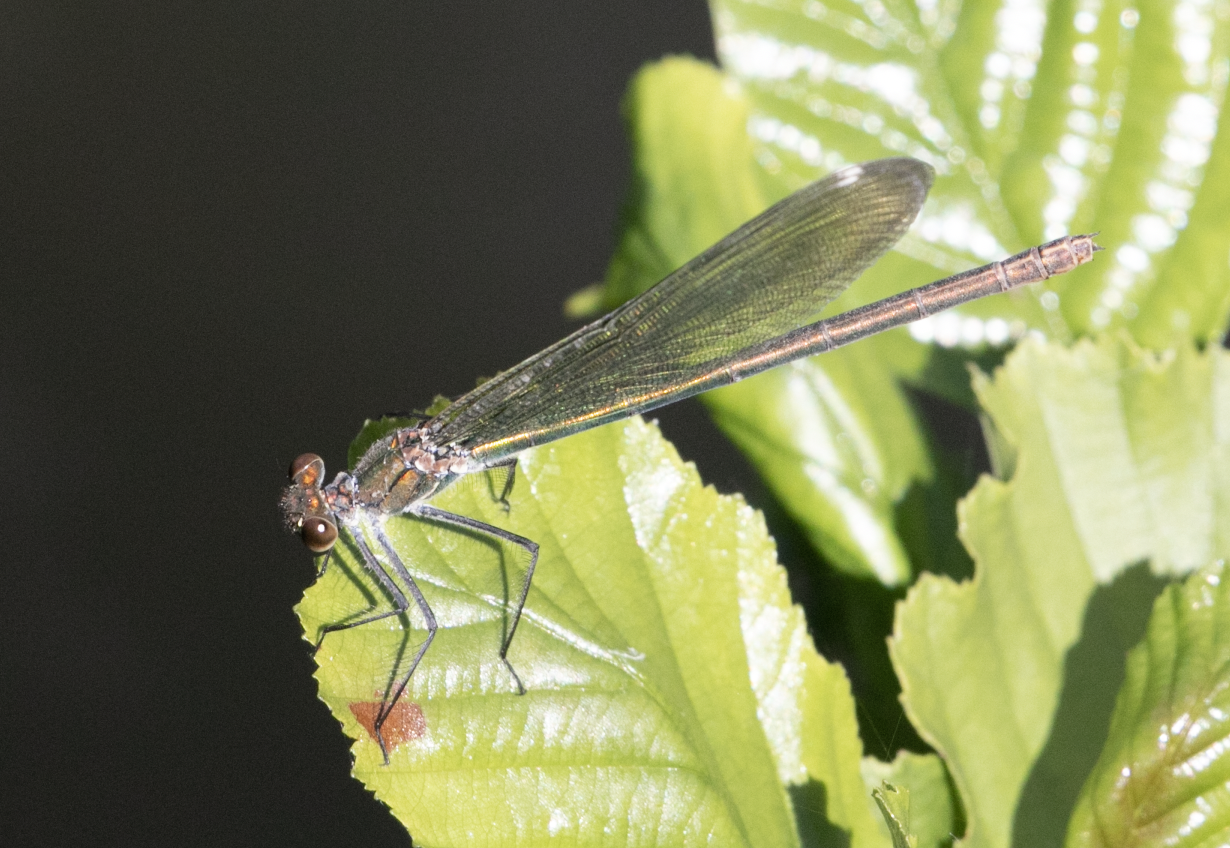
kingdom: Animalia
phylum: Arthropoda
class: Insecta
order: Odonata
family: Calopterygidae
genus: Calopteryx
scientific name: Calopteryx splendens
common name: Banded demoiselle
